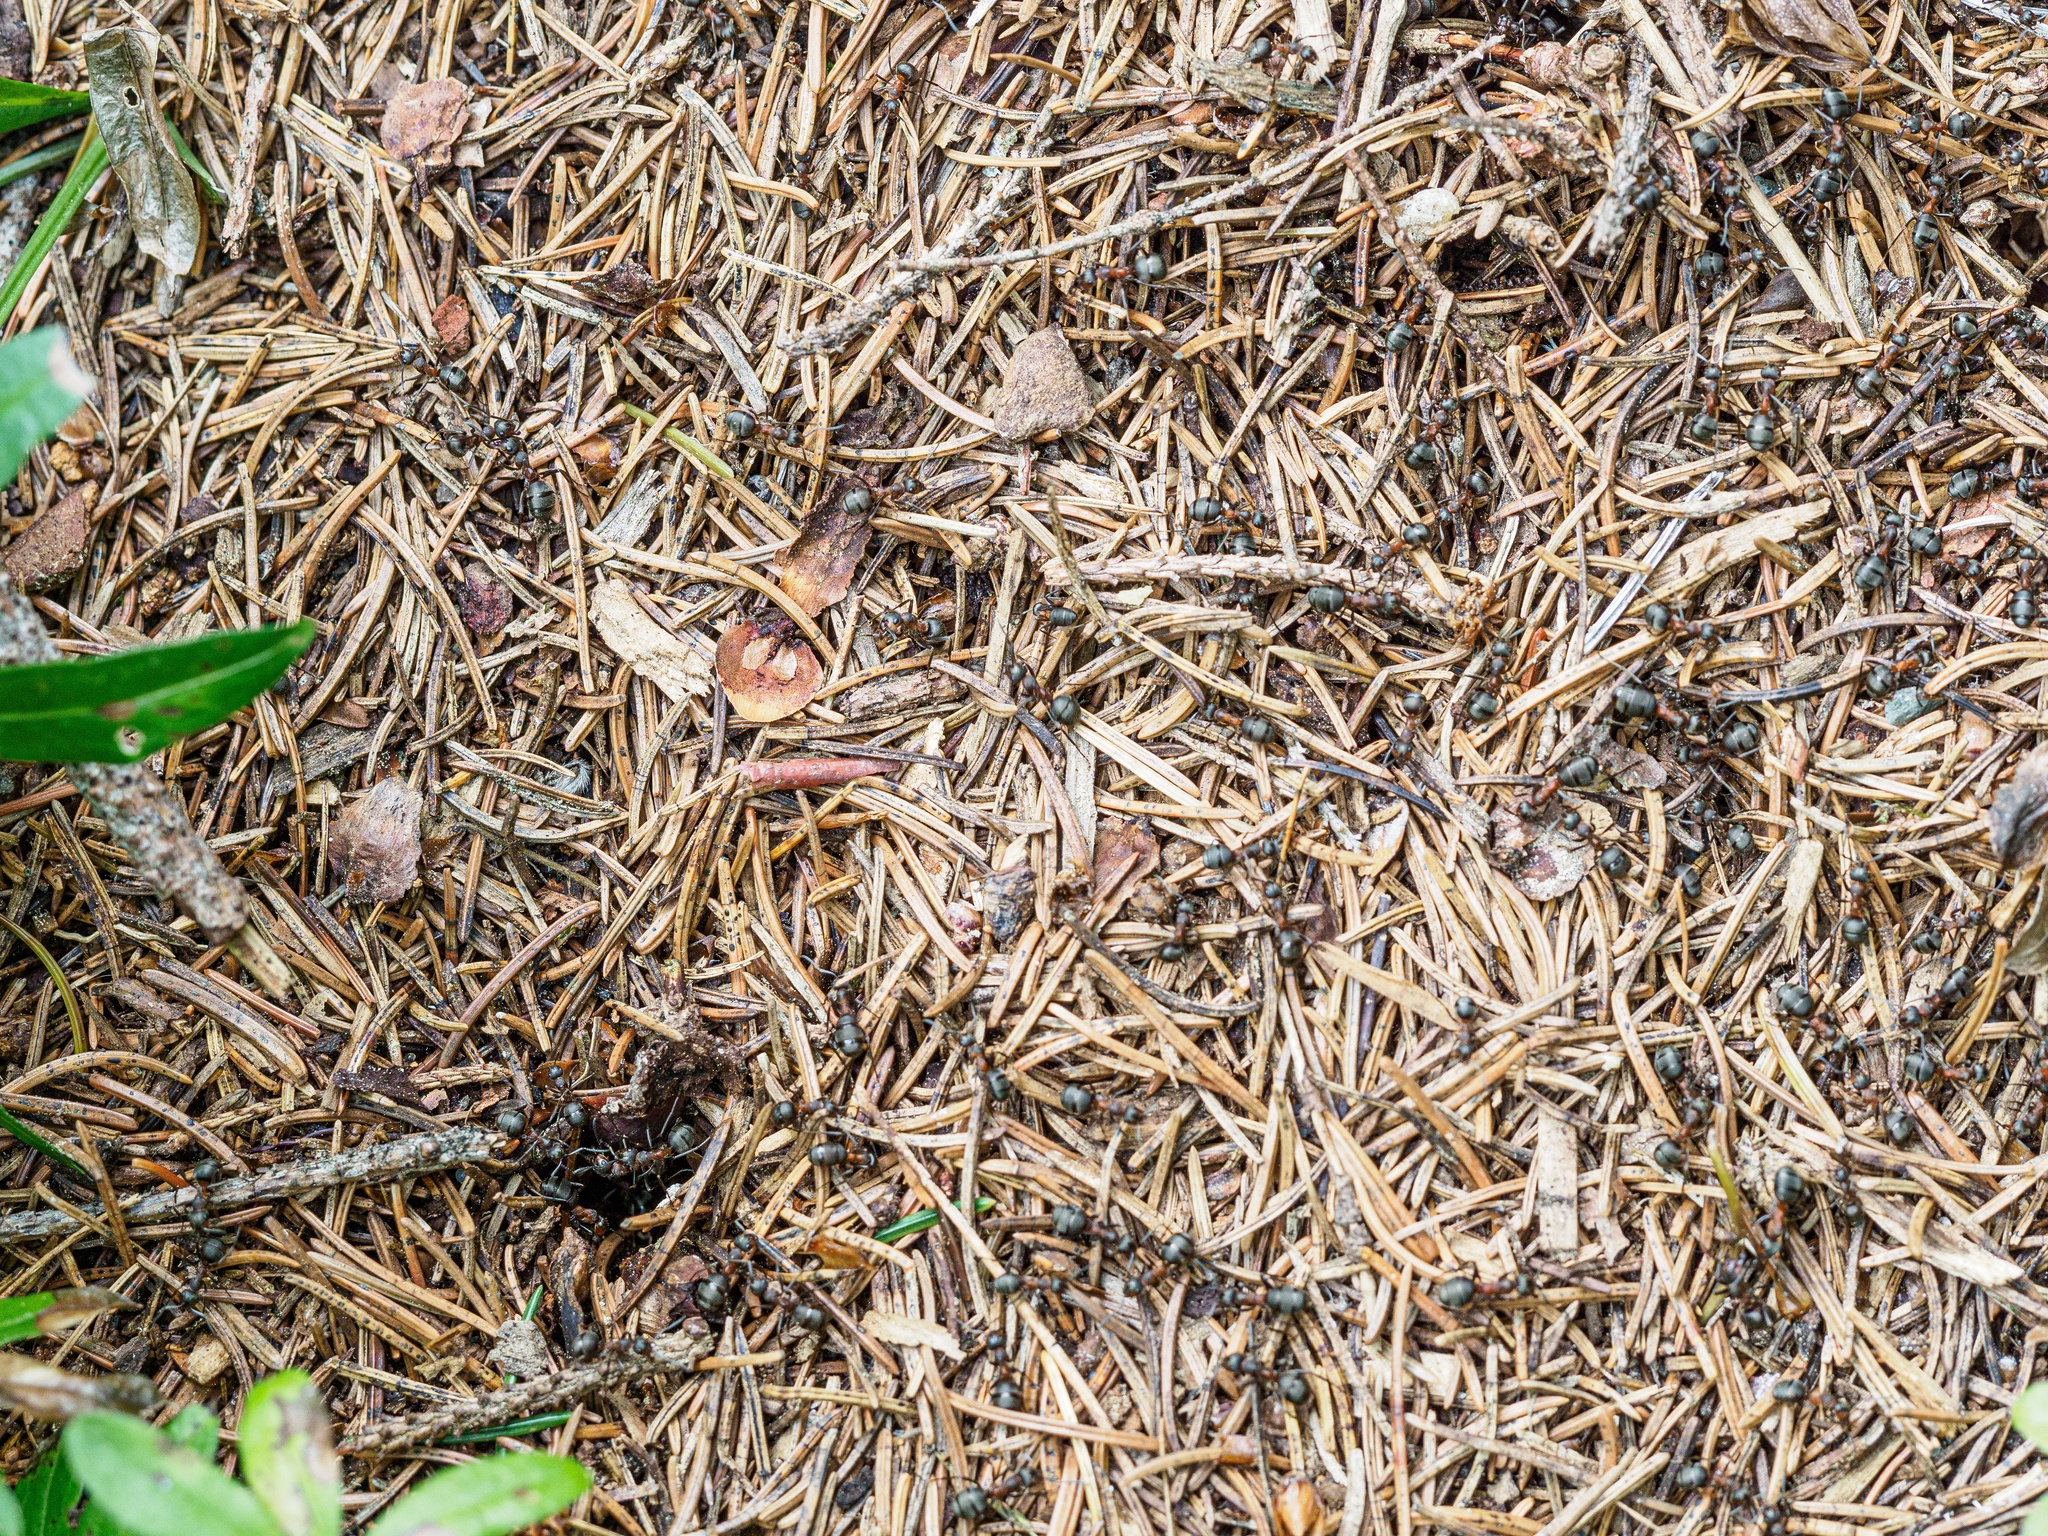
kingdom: Animalia
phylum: Arthropoda
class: Insecta
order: Hymenoptera
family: Formicidae
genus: Formica
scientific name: Formica lugubris
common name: Sinister mound ant
